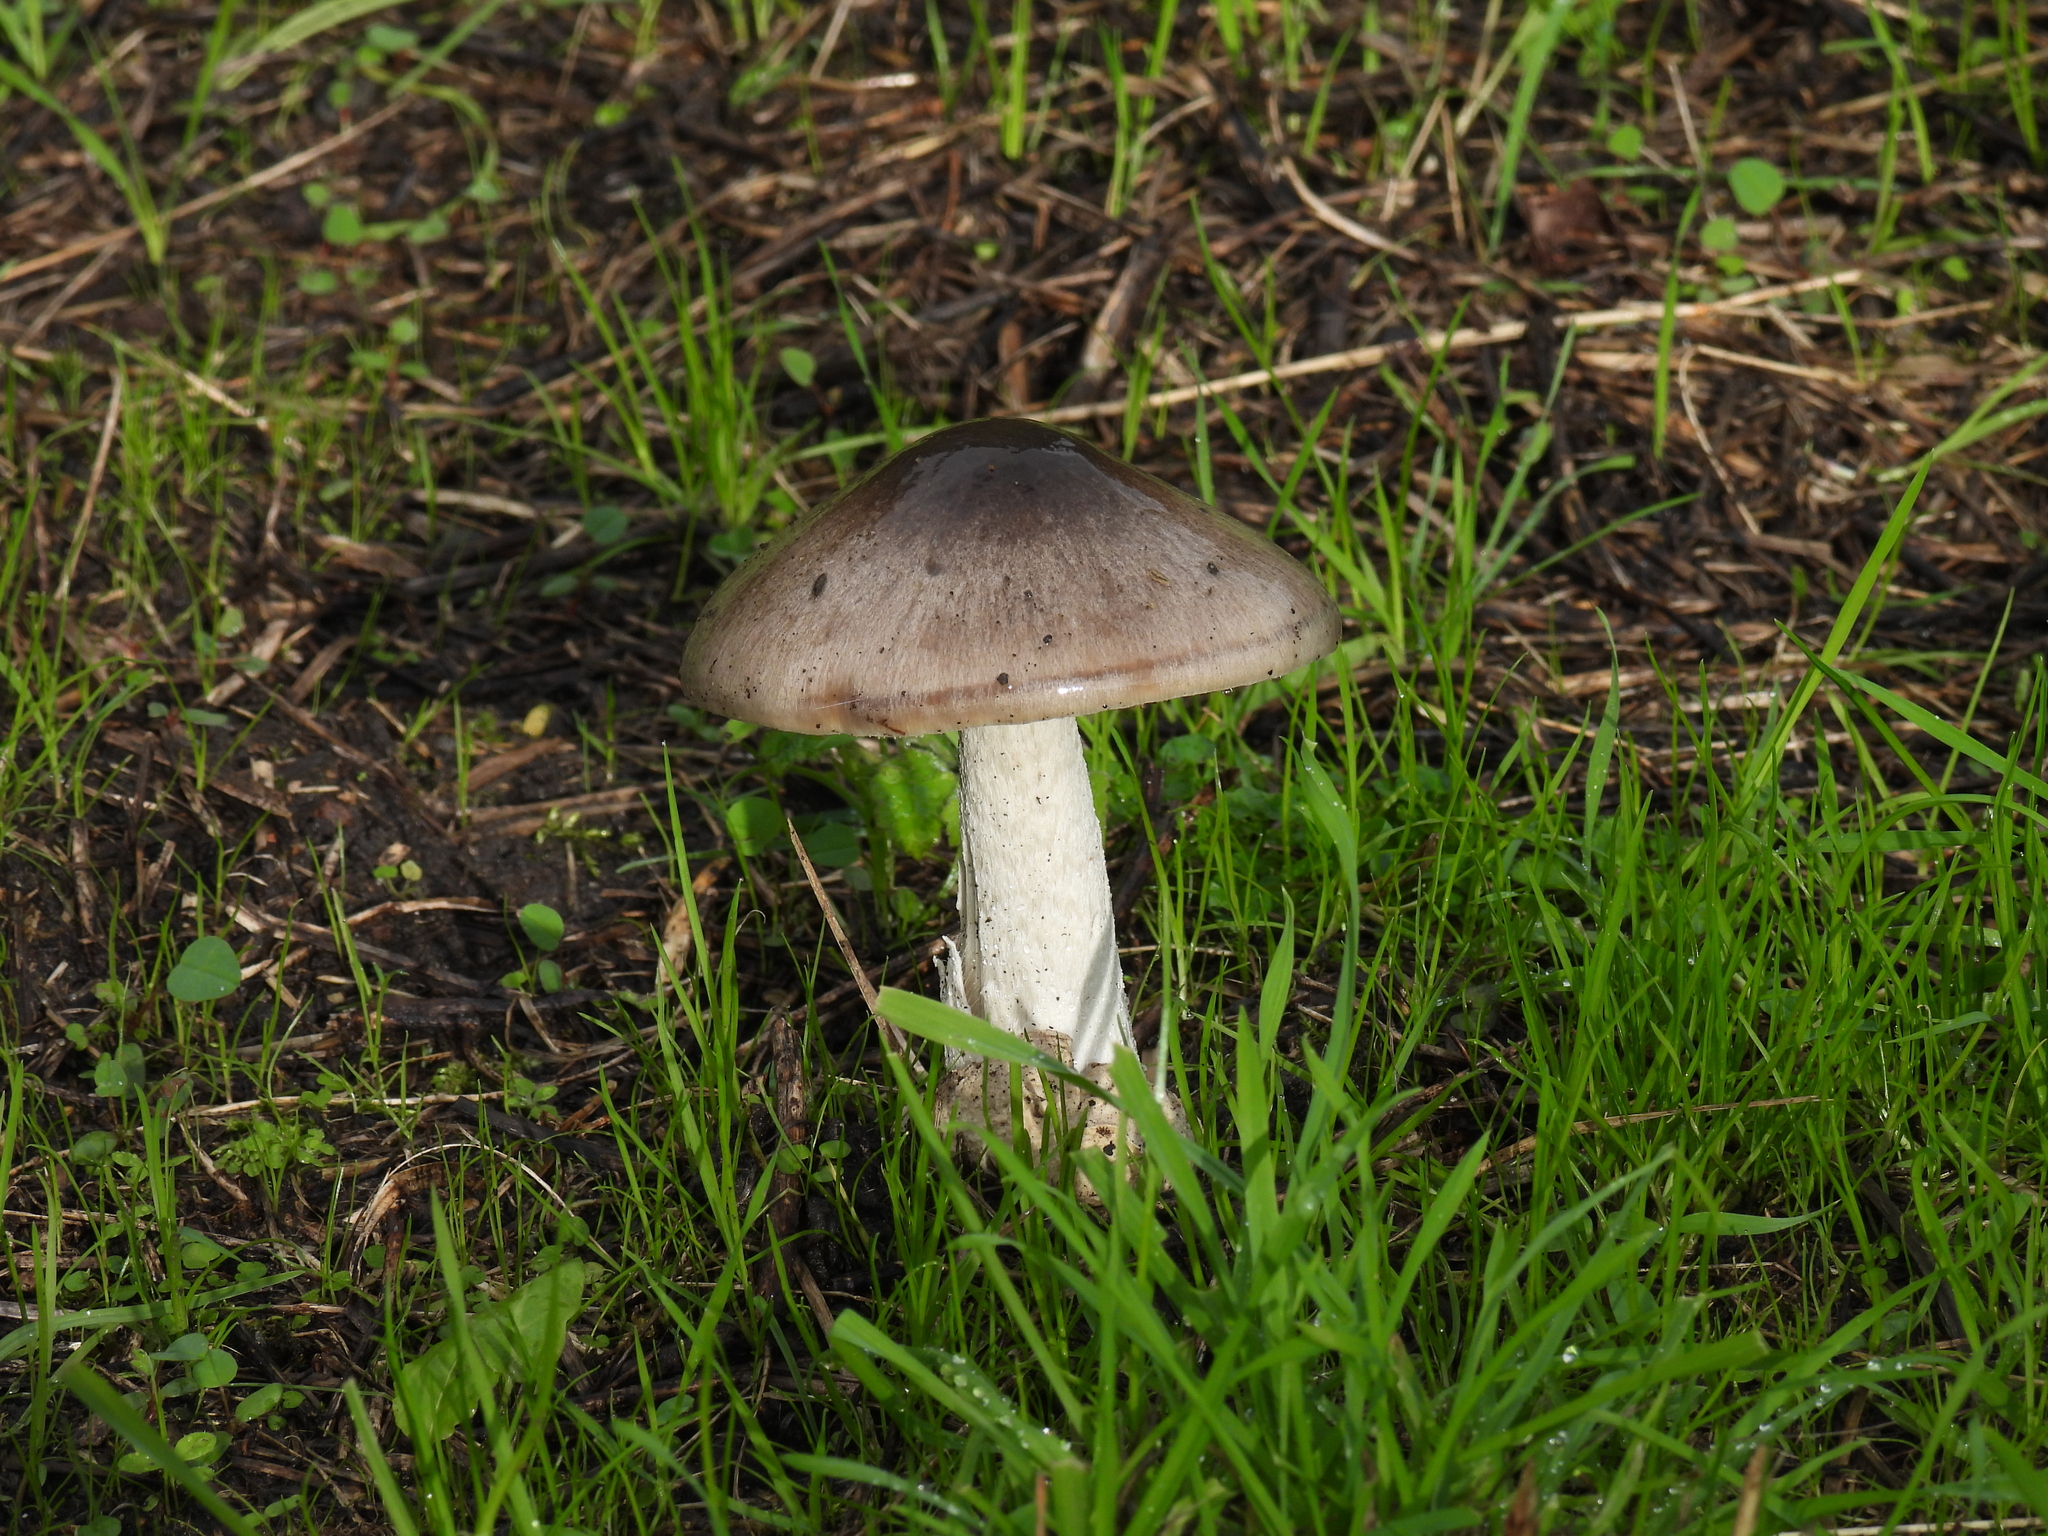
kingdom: Fungi
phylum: Basidiomycota
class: Agaricomycetes
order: Agaricales
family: Pluteaceae
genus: Volvopluteus
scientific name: Volvopluteus gloiocephalus
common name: Stubble rosegill
